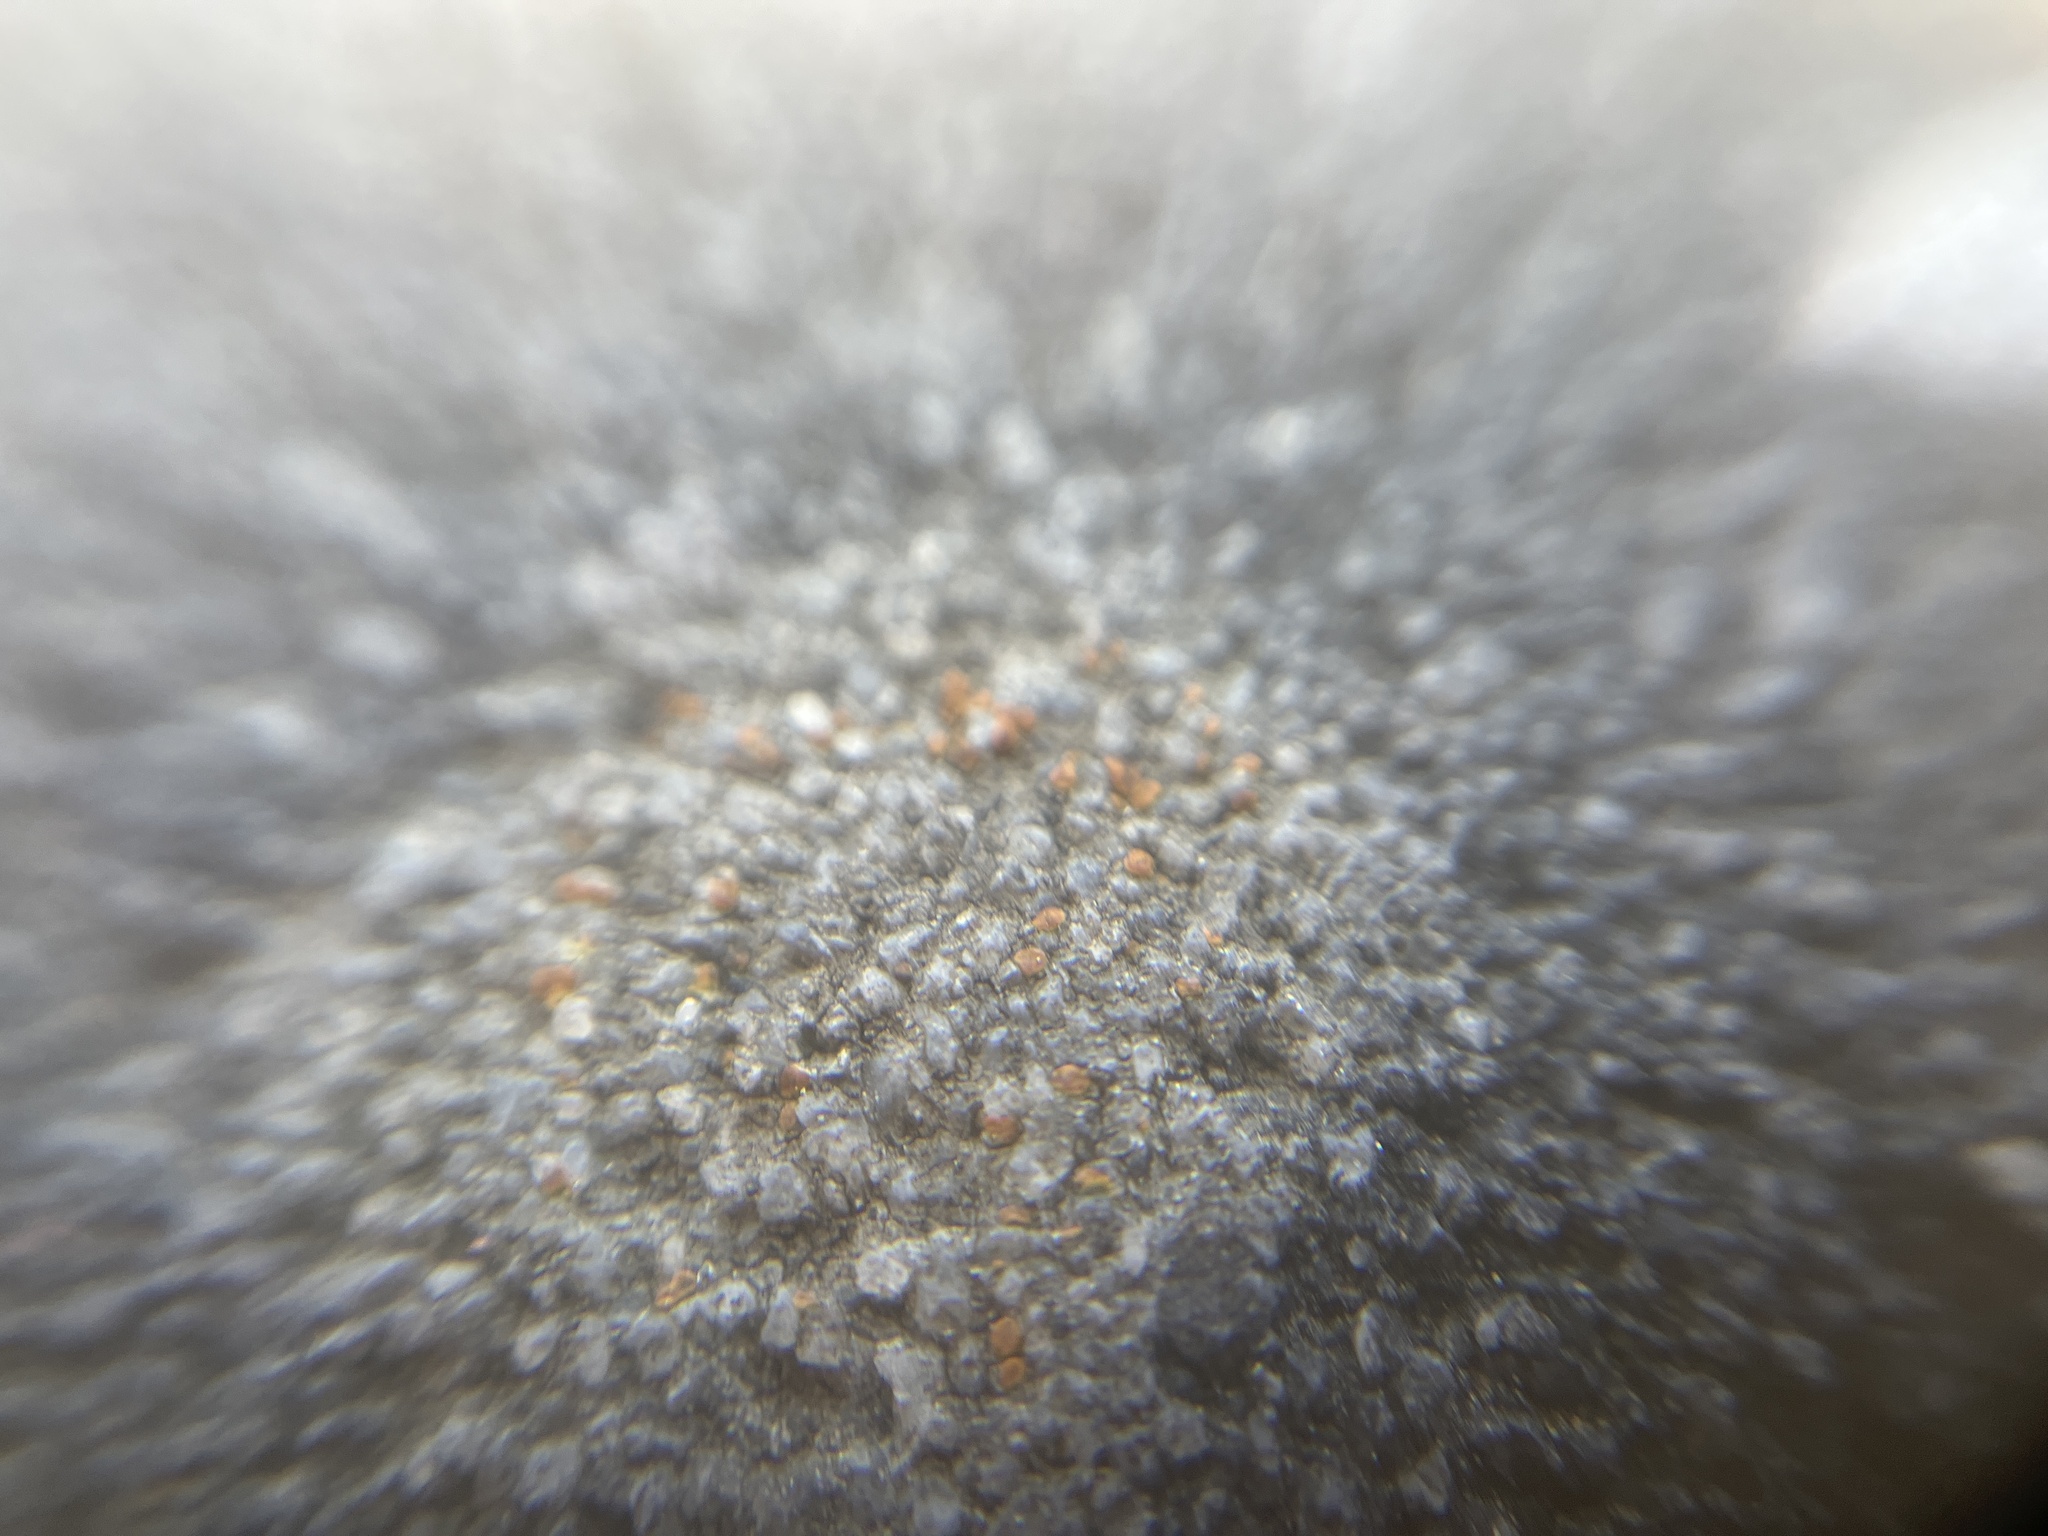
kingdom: Fungi
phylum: Ascomycota
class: Lecanoromycetes
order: Lecanorales
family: Psoraceae
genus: Protoblastenia
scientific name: Protoblastenia rupestris
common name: Chewing gum lichen
